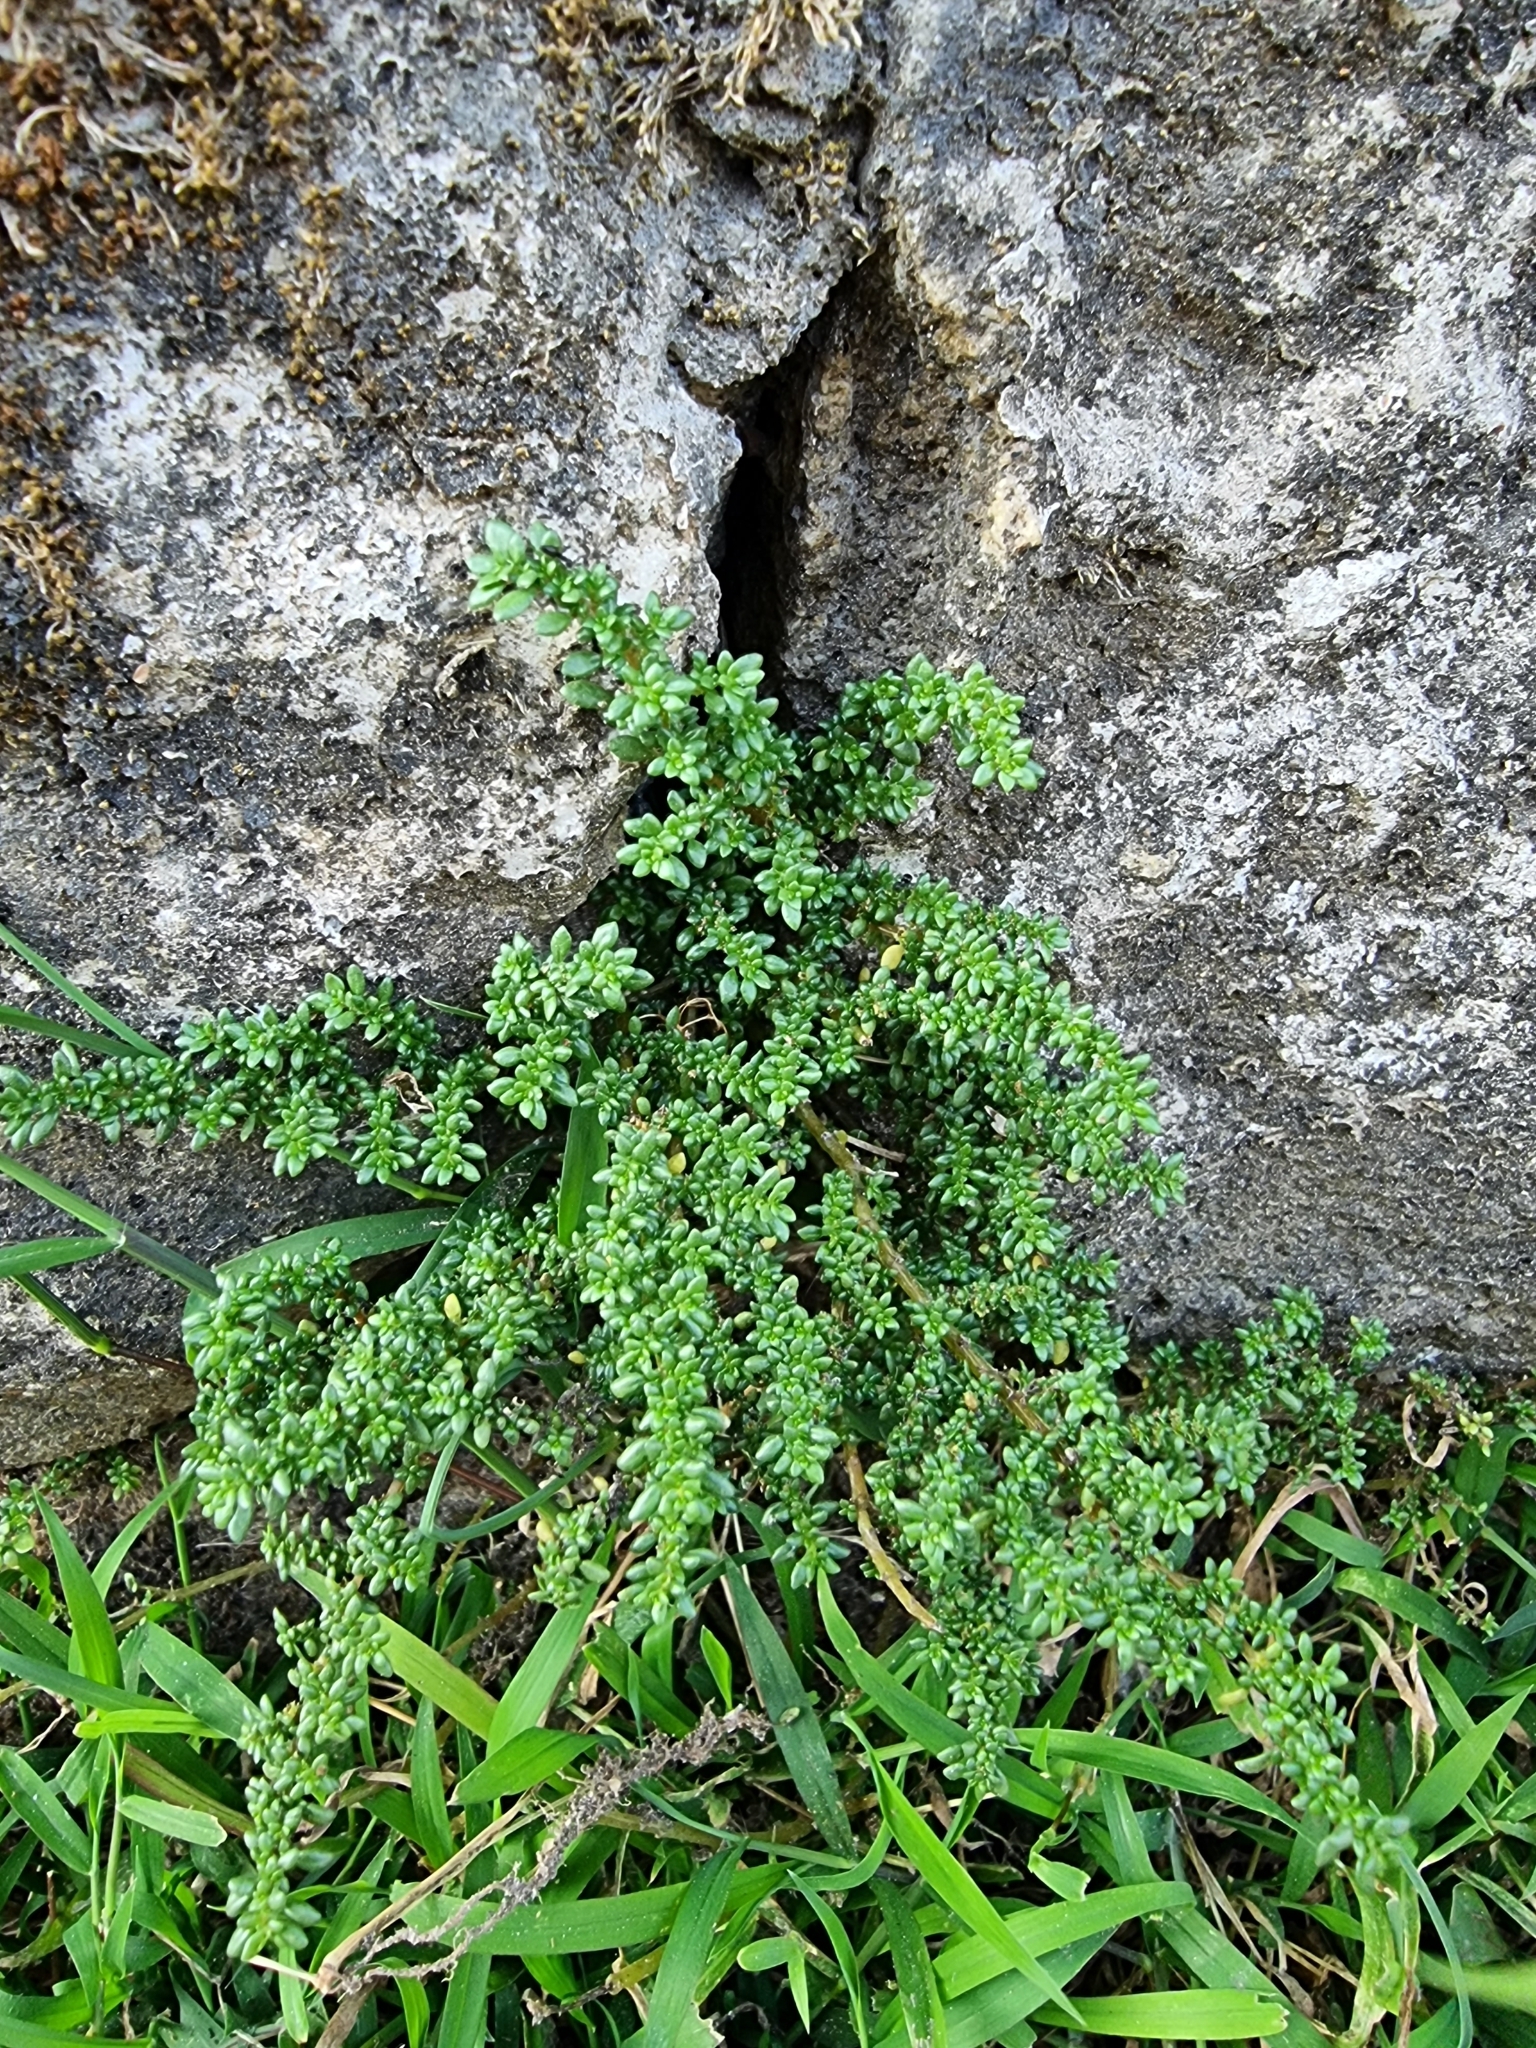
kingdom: Plantae
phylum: Tracheophyta
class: Magnoliopsida
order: Rosales
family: Urticaceae
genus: Pilea
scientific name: Pilea microphylla
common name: Artillery-plant
